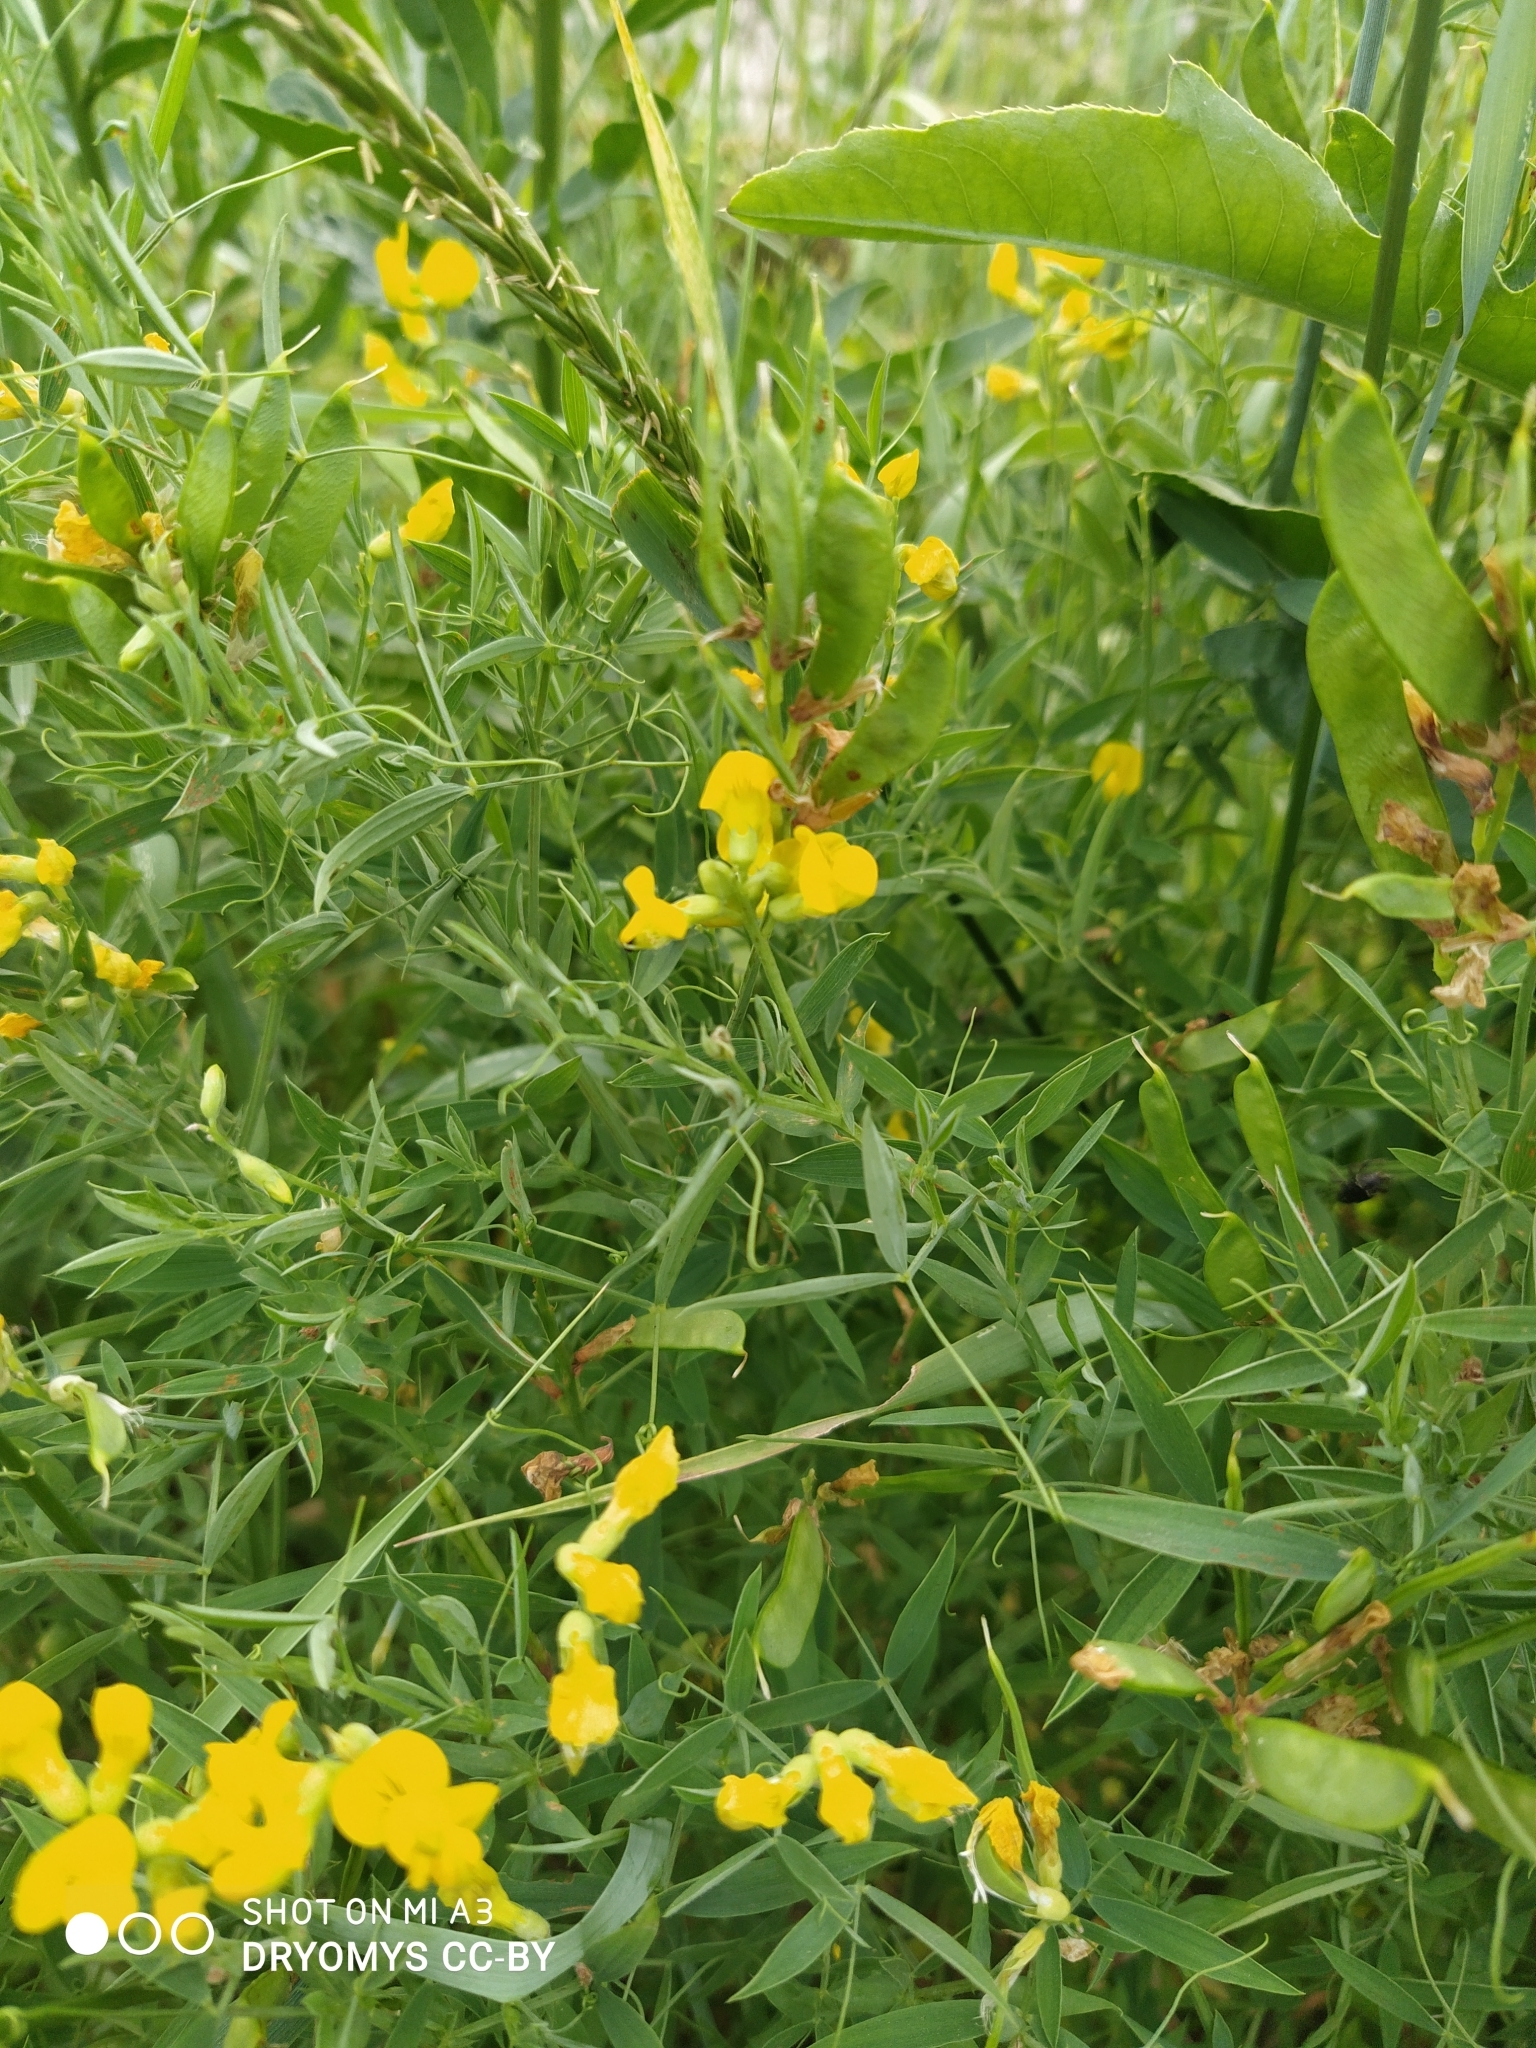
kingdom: Plantae
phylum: Tracheophyta
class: Magnoliopsida
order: Fabales
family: Fabaceae
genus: Lathyrus
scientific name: Lathyrus pratensis
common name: Meadow vetchling
